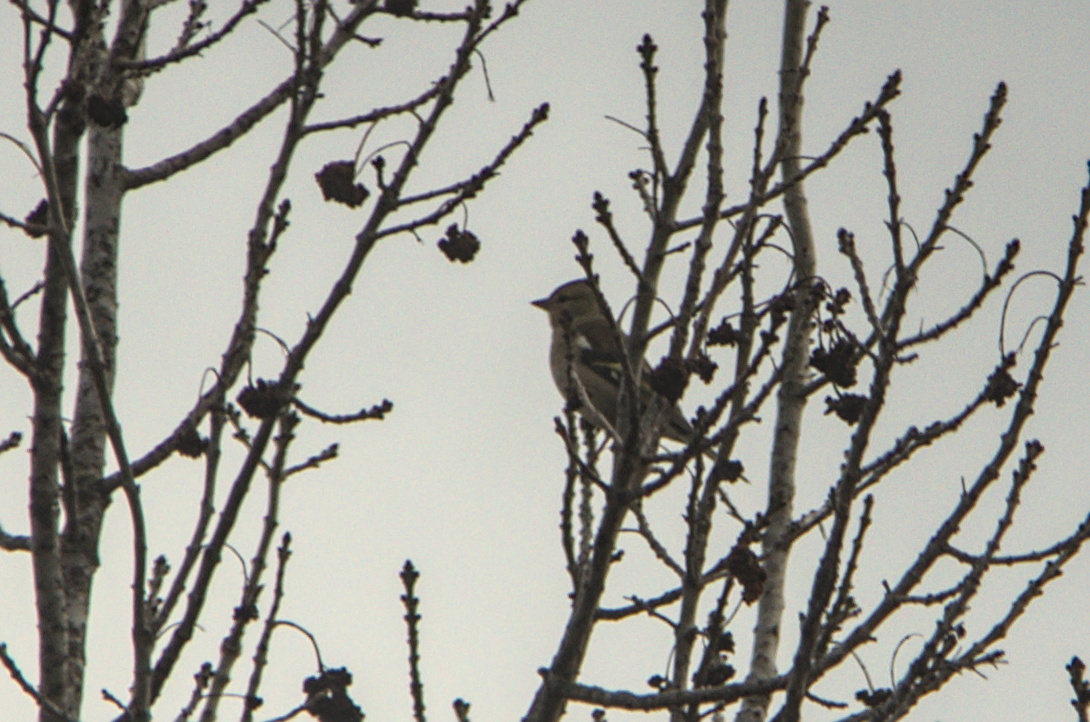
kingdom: Animalia
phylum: Chordata
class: Aves
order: Passeriformes
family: Fringillidae
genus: Fringilla
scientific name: Fringilla coelebs
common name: Common chaffinch
